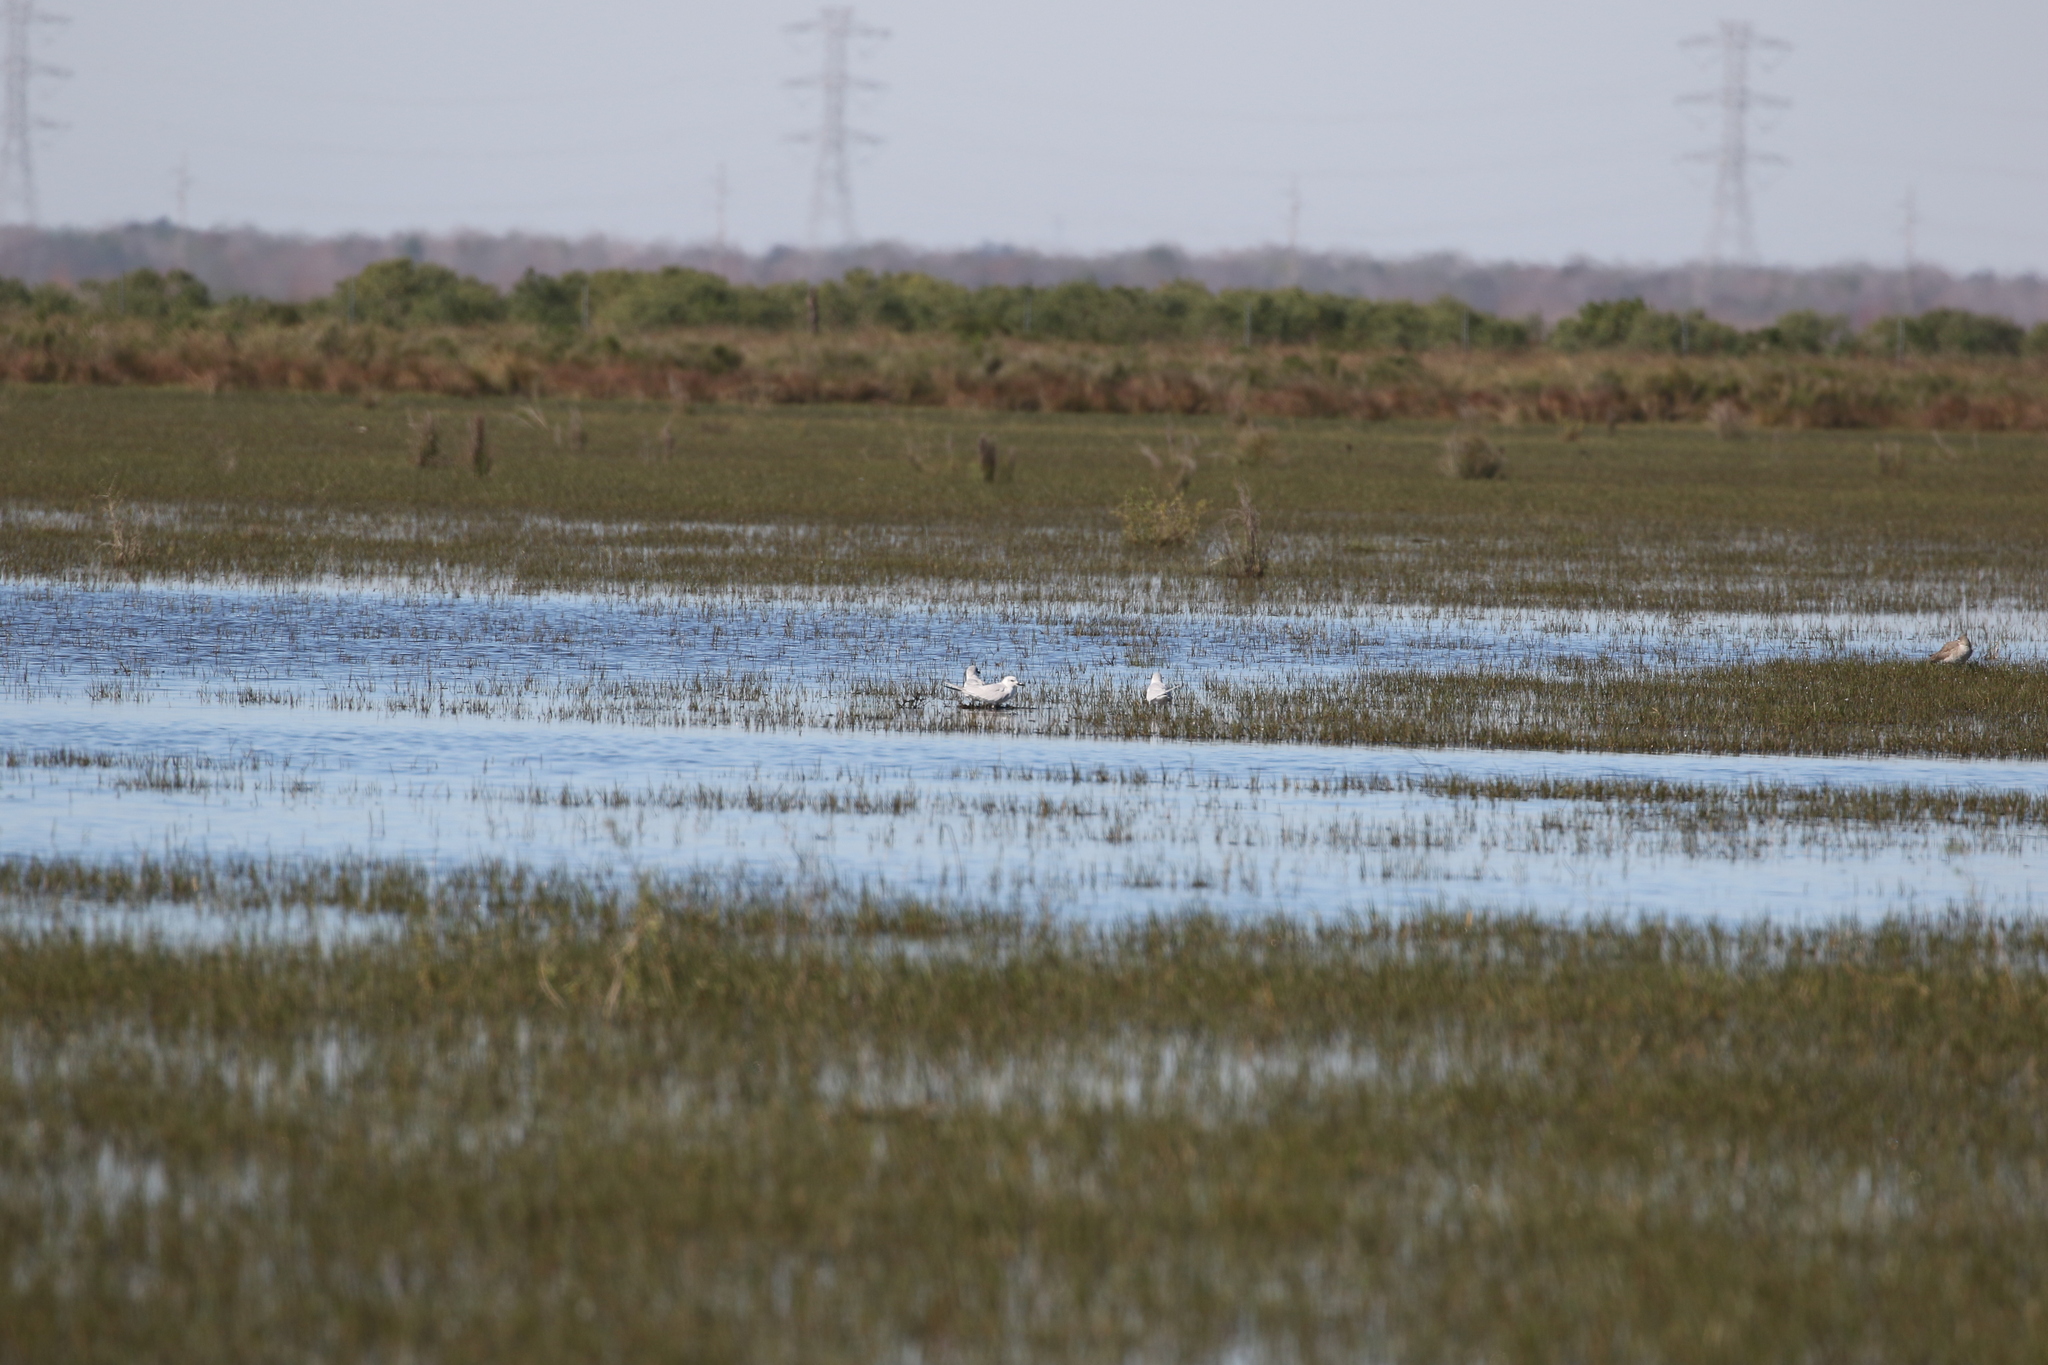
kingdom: Animalia
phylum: Chordata
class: Aves
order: Charadriiformes
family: Laridae
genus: Gelochelidon
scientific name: Gelochelidon nilotica
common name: Gull-billed tern
